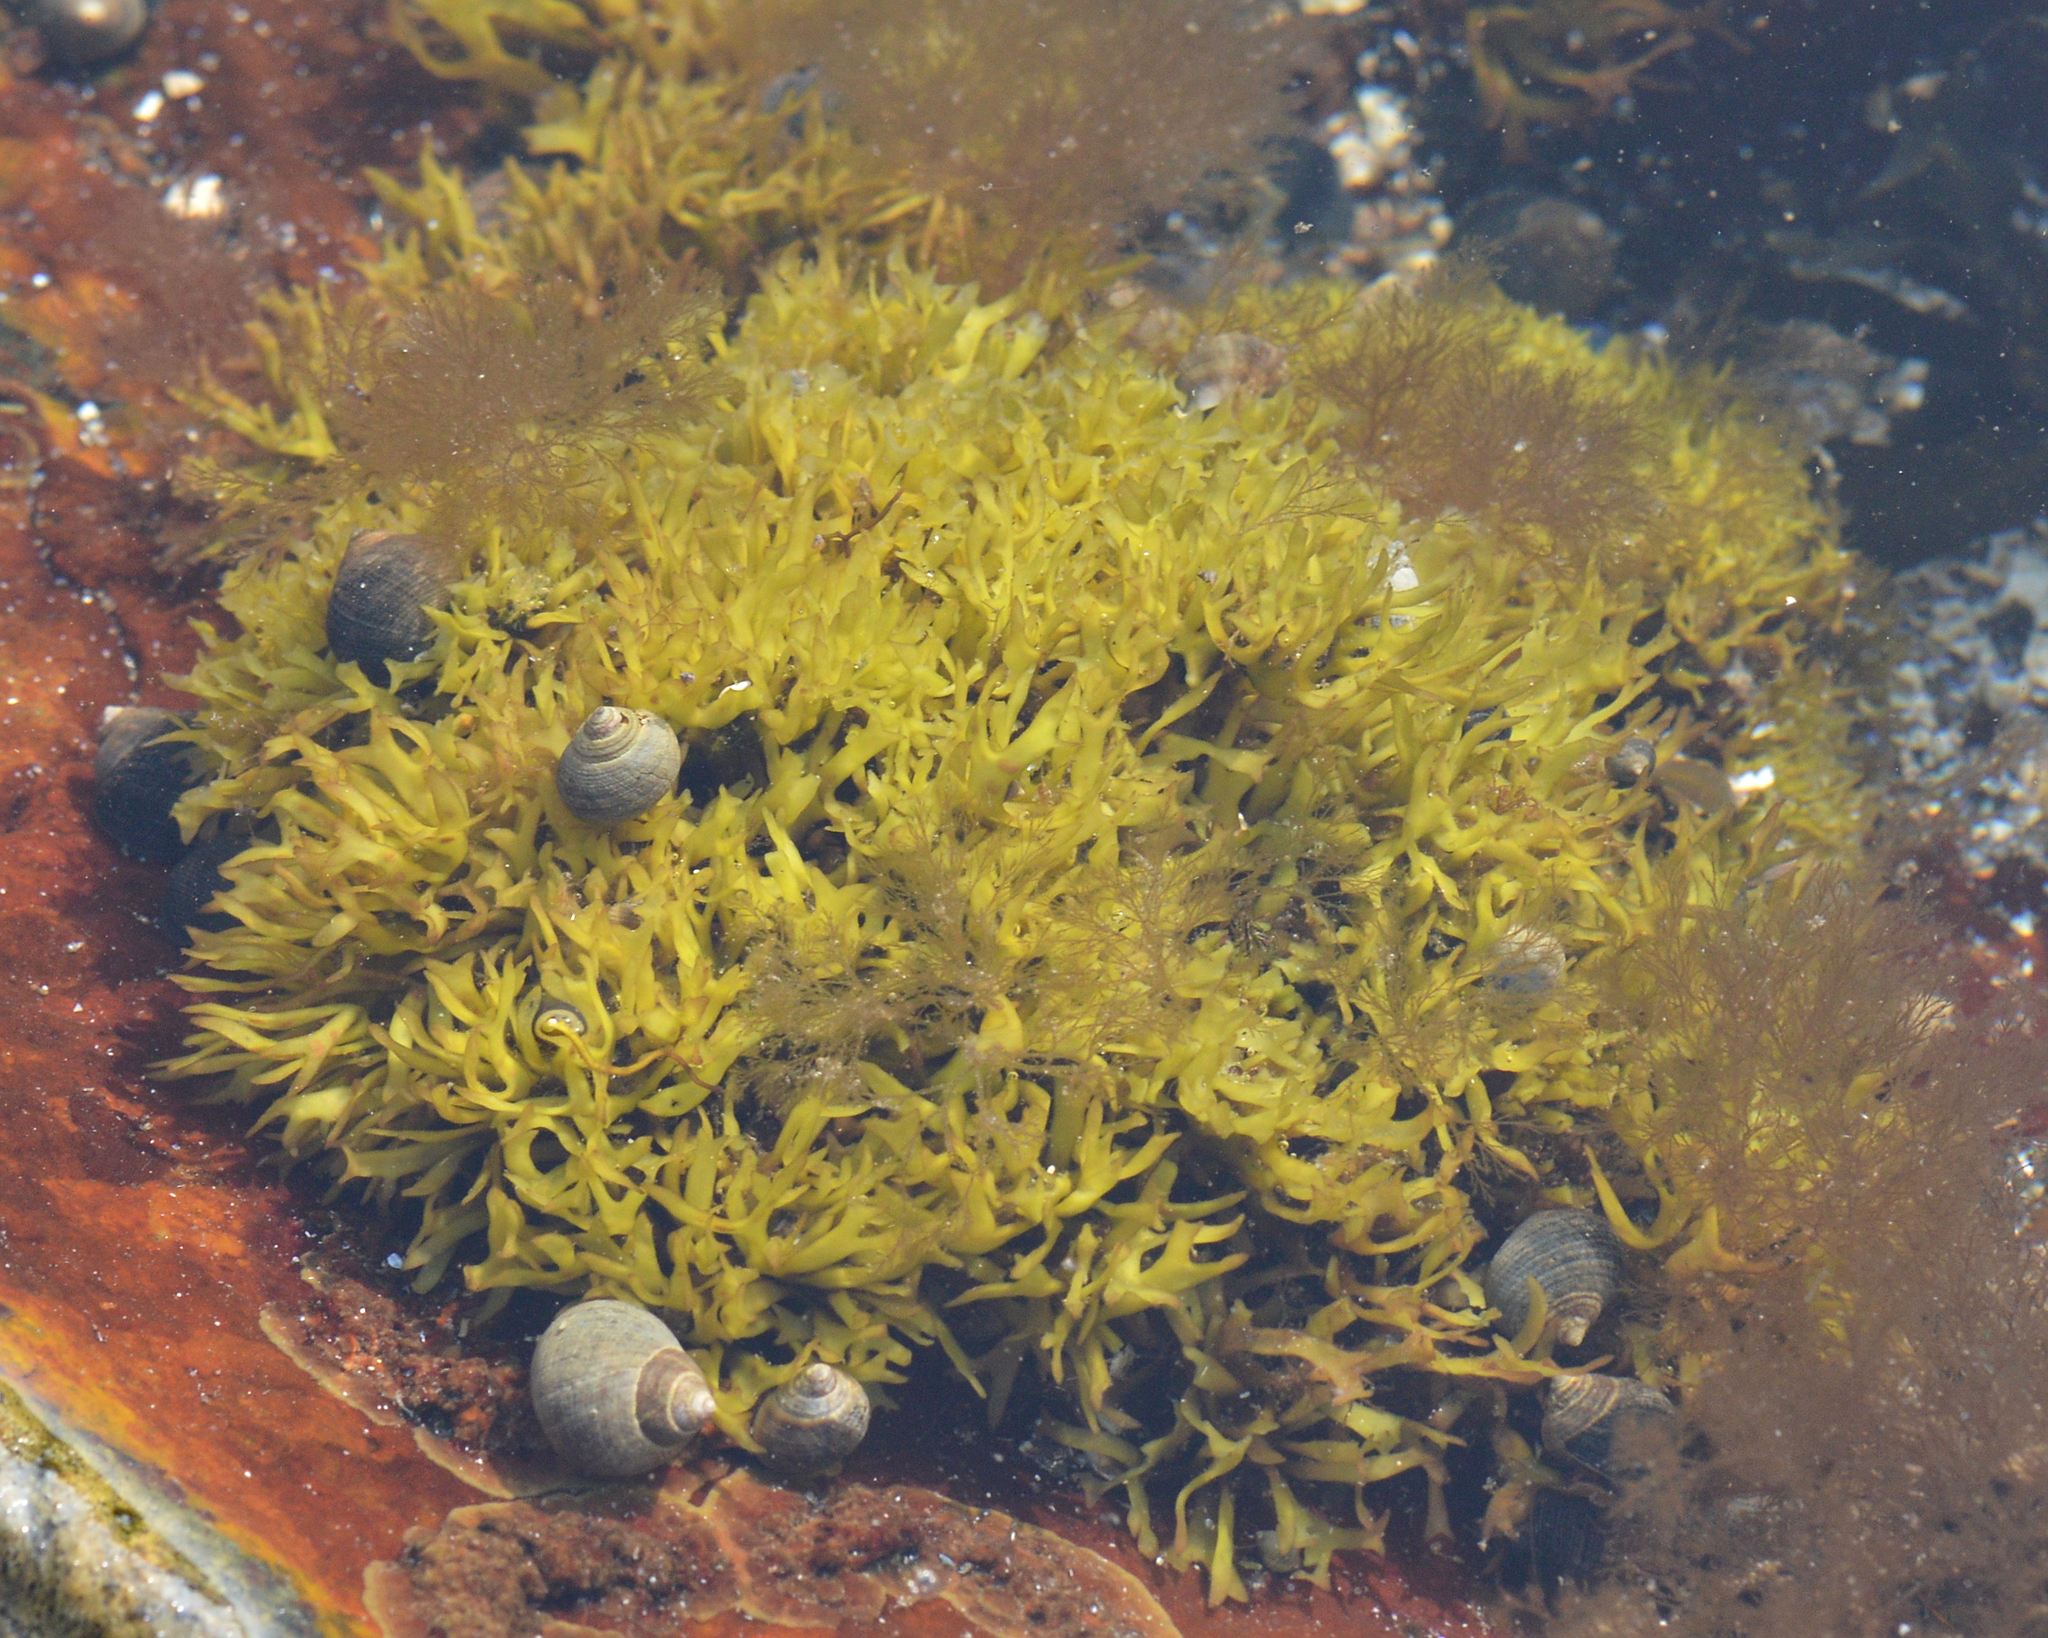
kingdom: Animalia
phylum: Mollusca
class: Gastropoda
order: Littorinimorpha
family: Littorinidae
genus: Littorina
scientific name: Littorina littorea
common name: Common periwinkle
